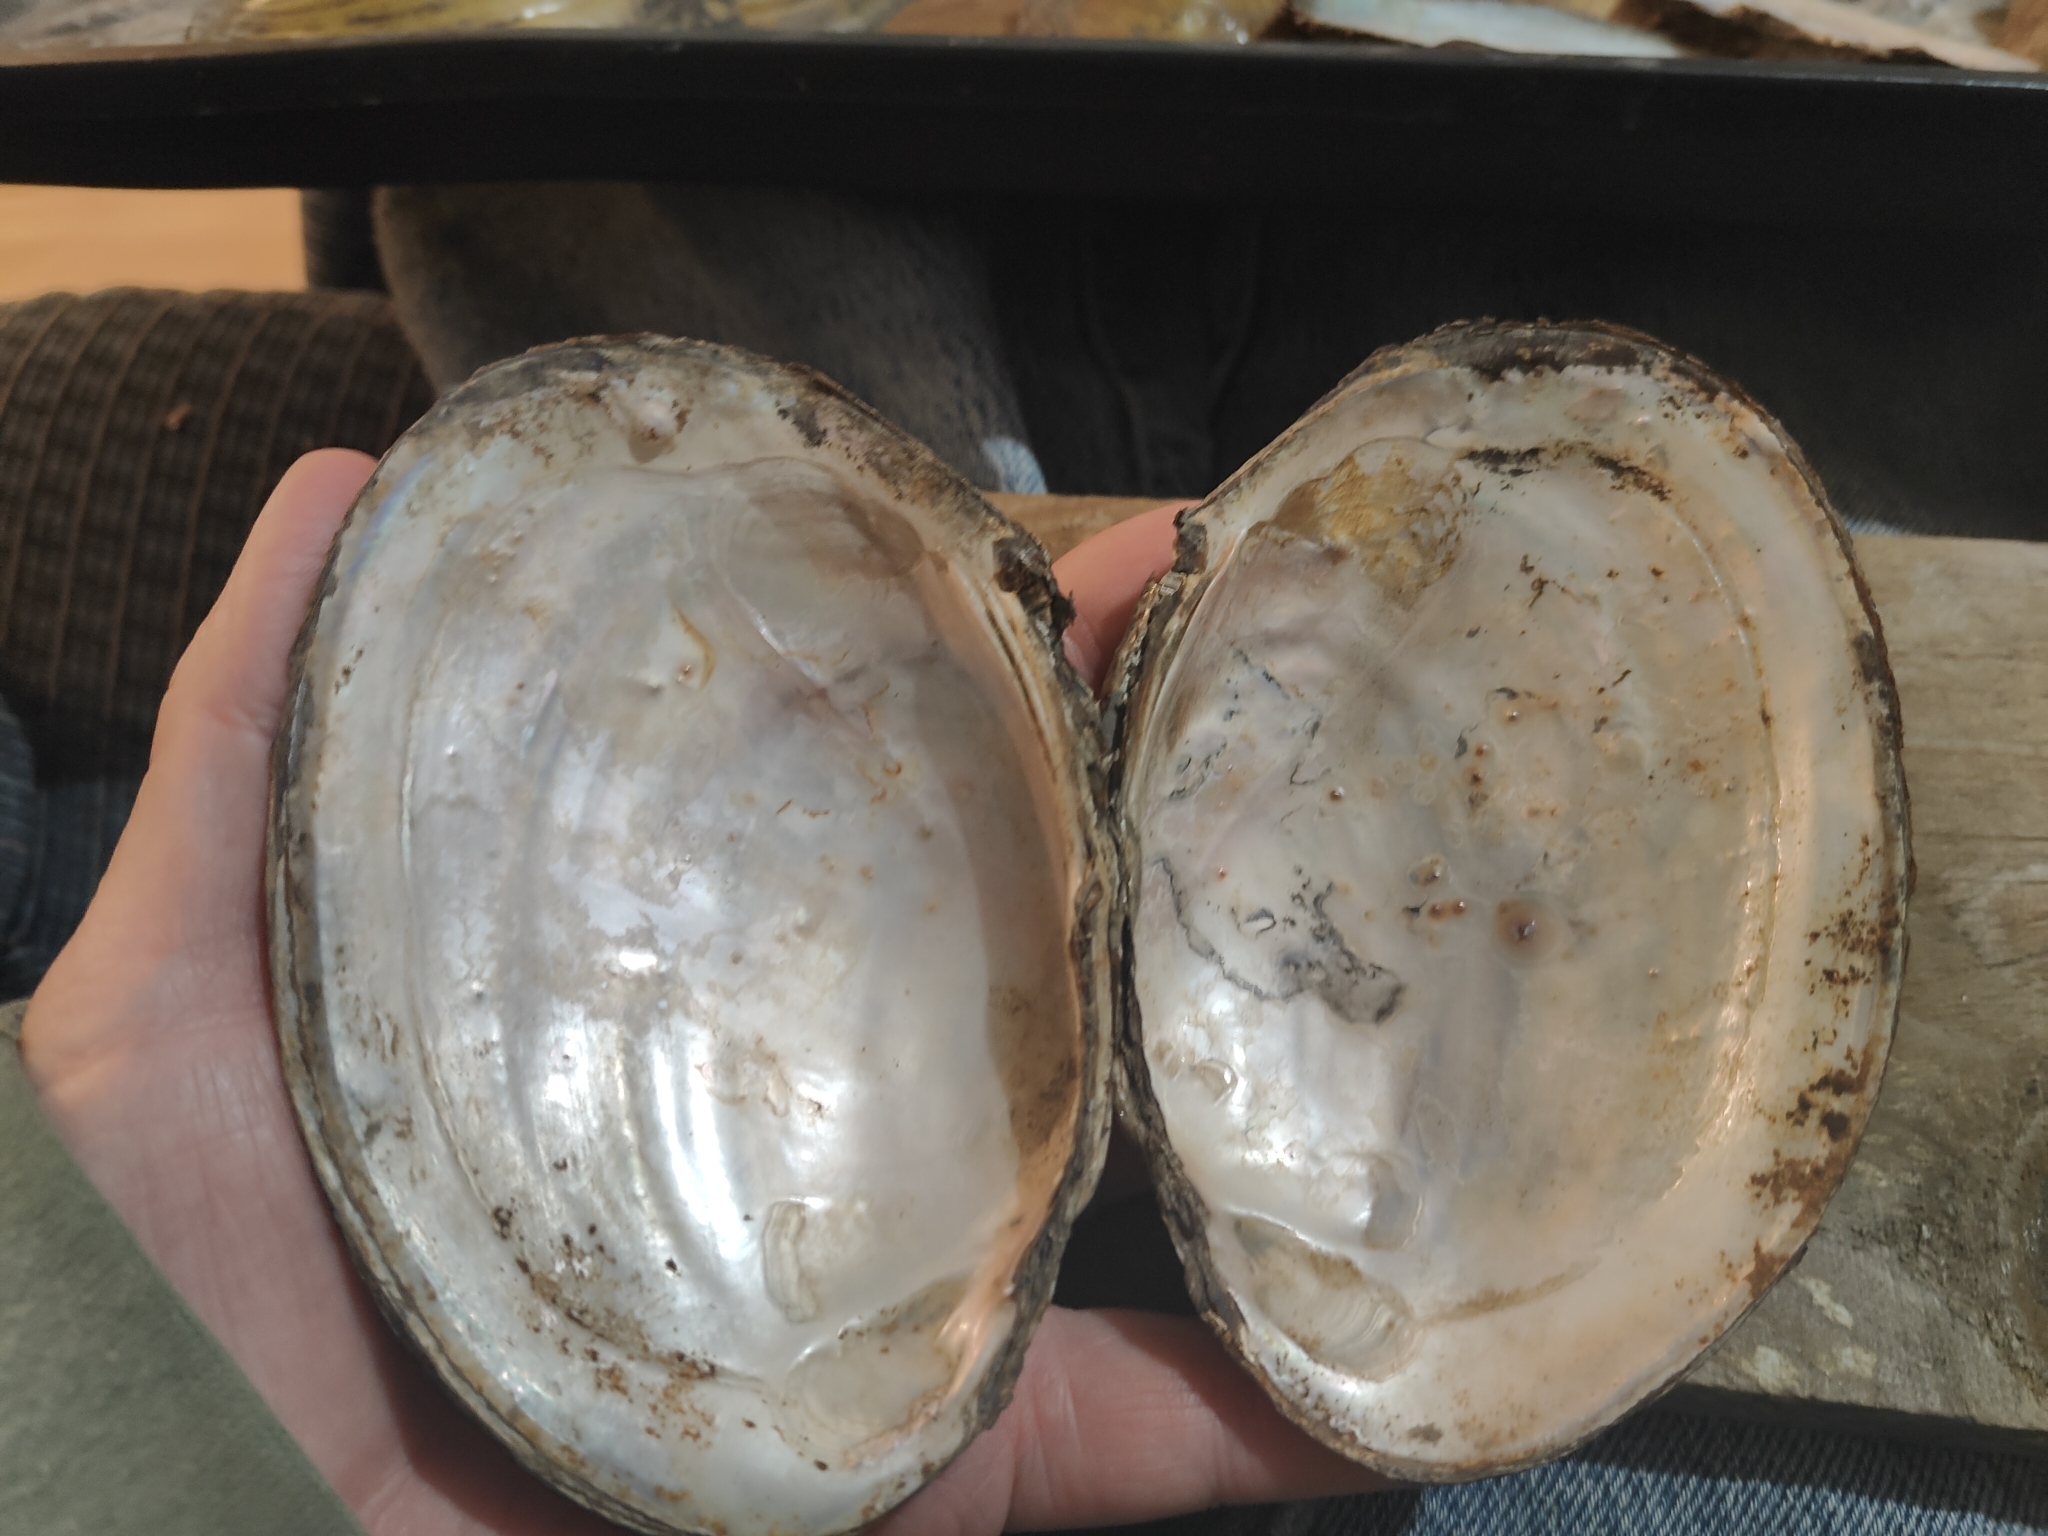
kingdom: Animalia
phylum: Mollusca
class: Bivalvia
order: Unionida
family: Unionidae
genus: Potamilus
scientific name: Potamilus fragilis
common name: Fragile papershell
